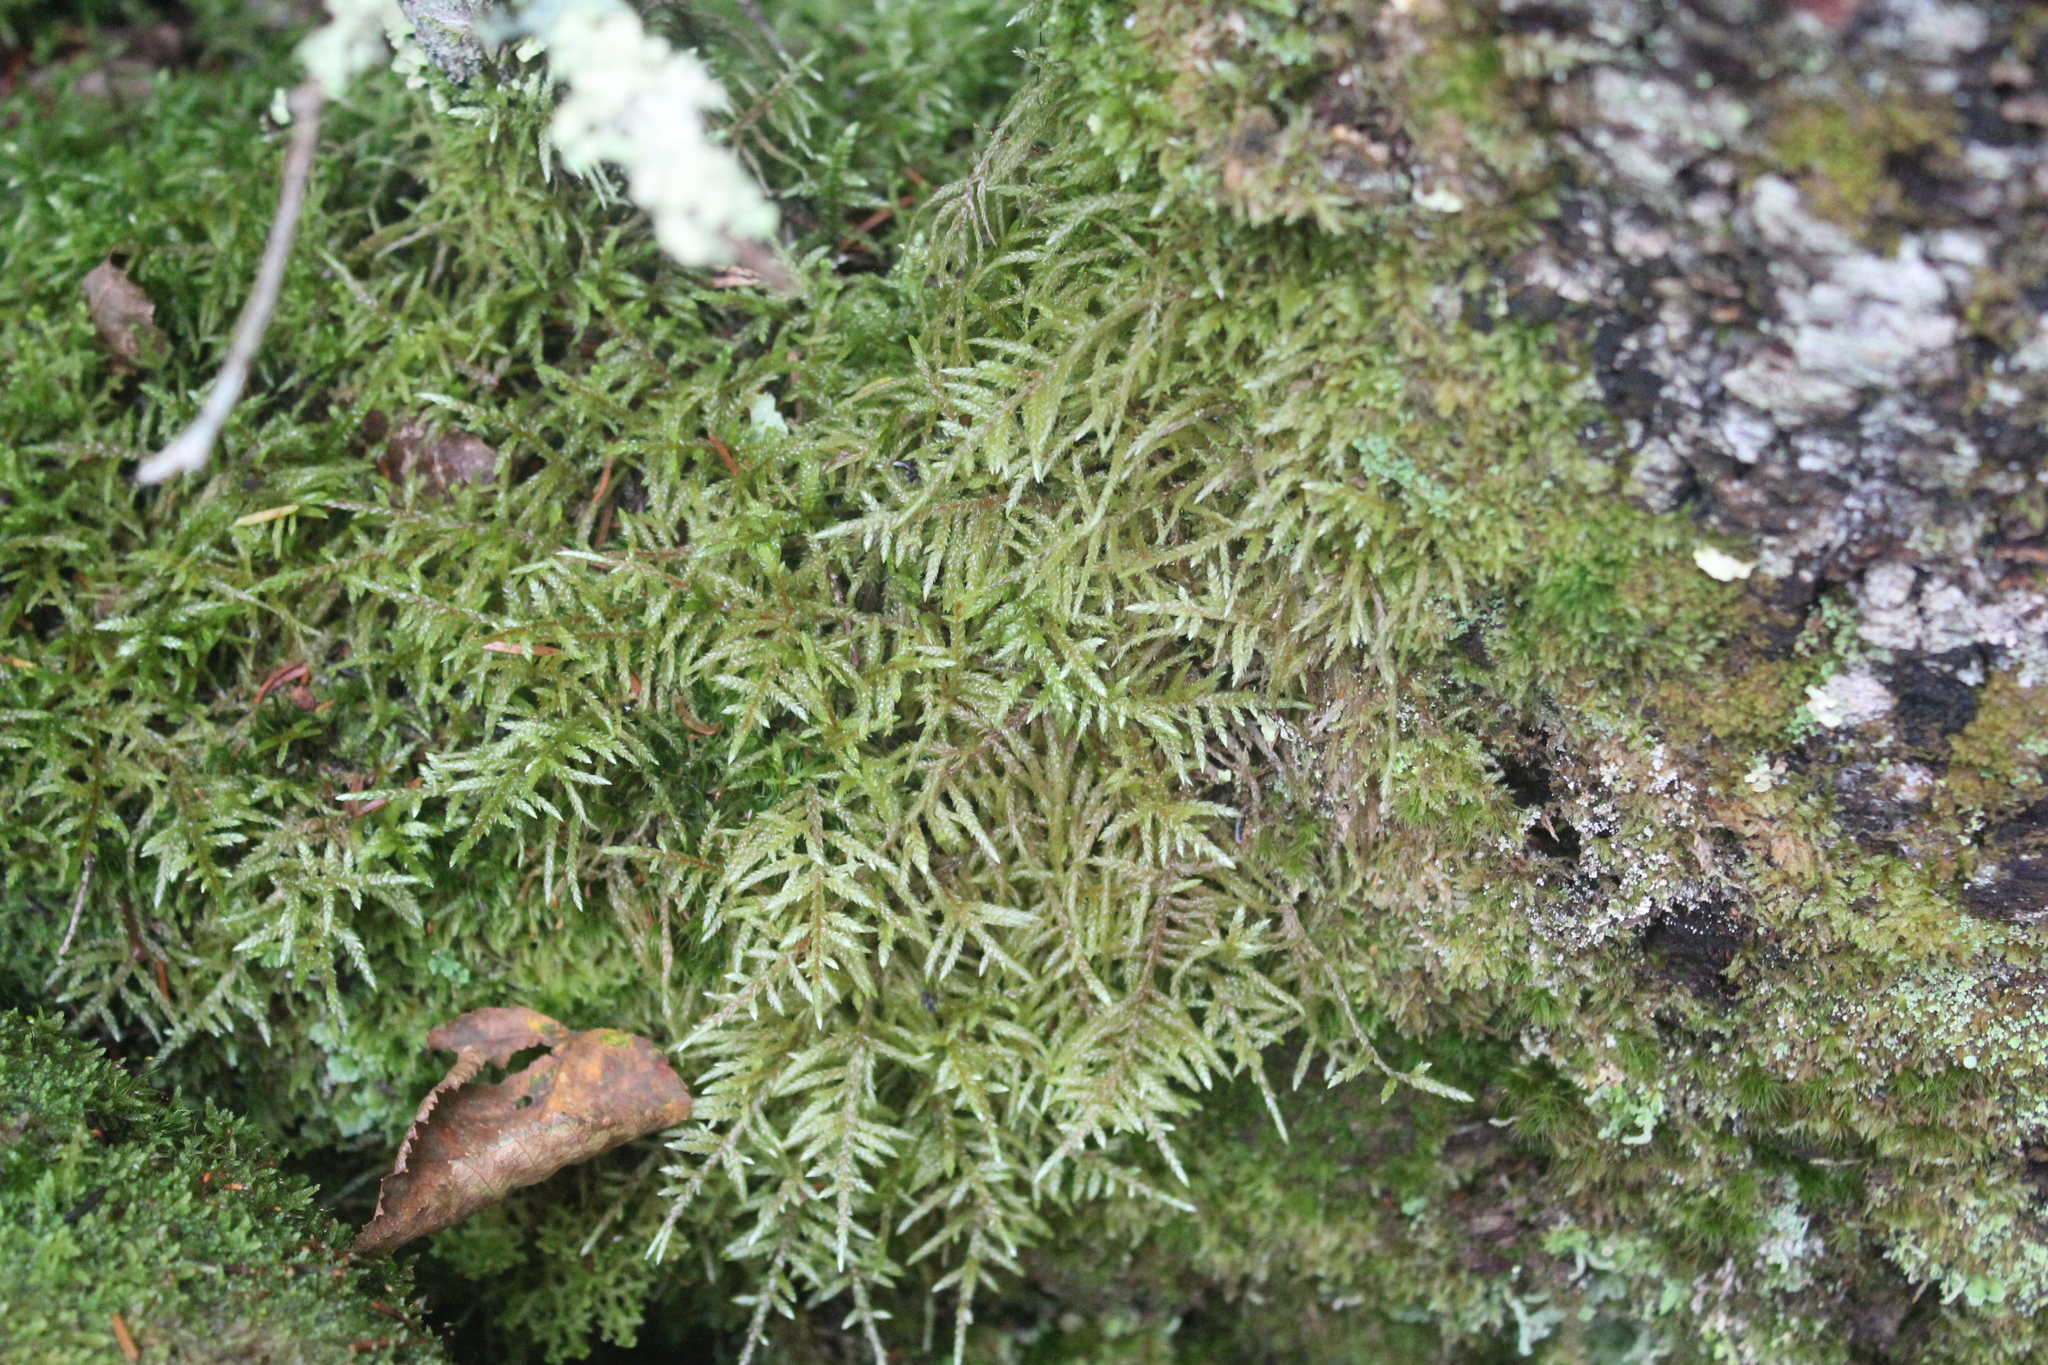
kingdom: Plantae
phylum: Bryophyta
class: Bryopsida
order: Hypnales
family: Hylocomiaceae
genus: Pleurozium
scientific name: Pleurozium schreberi
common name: Red-stemmed feather moss
